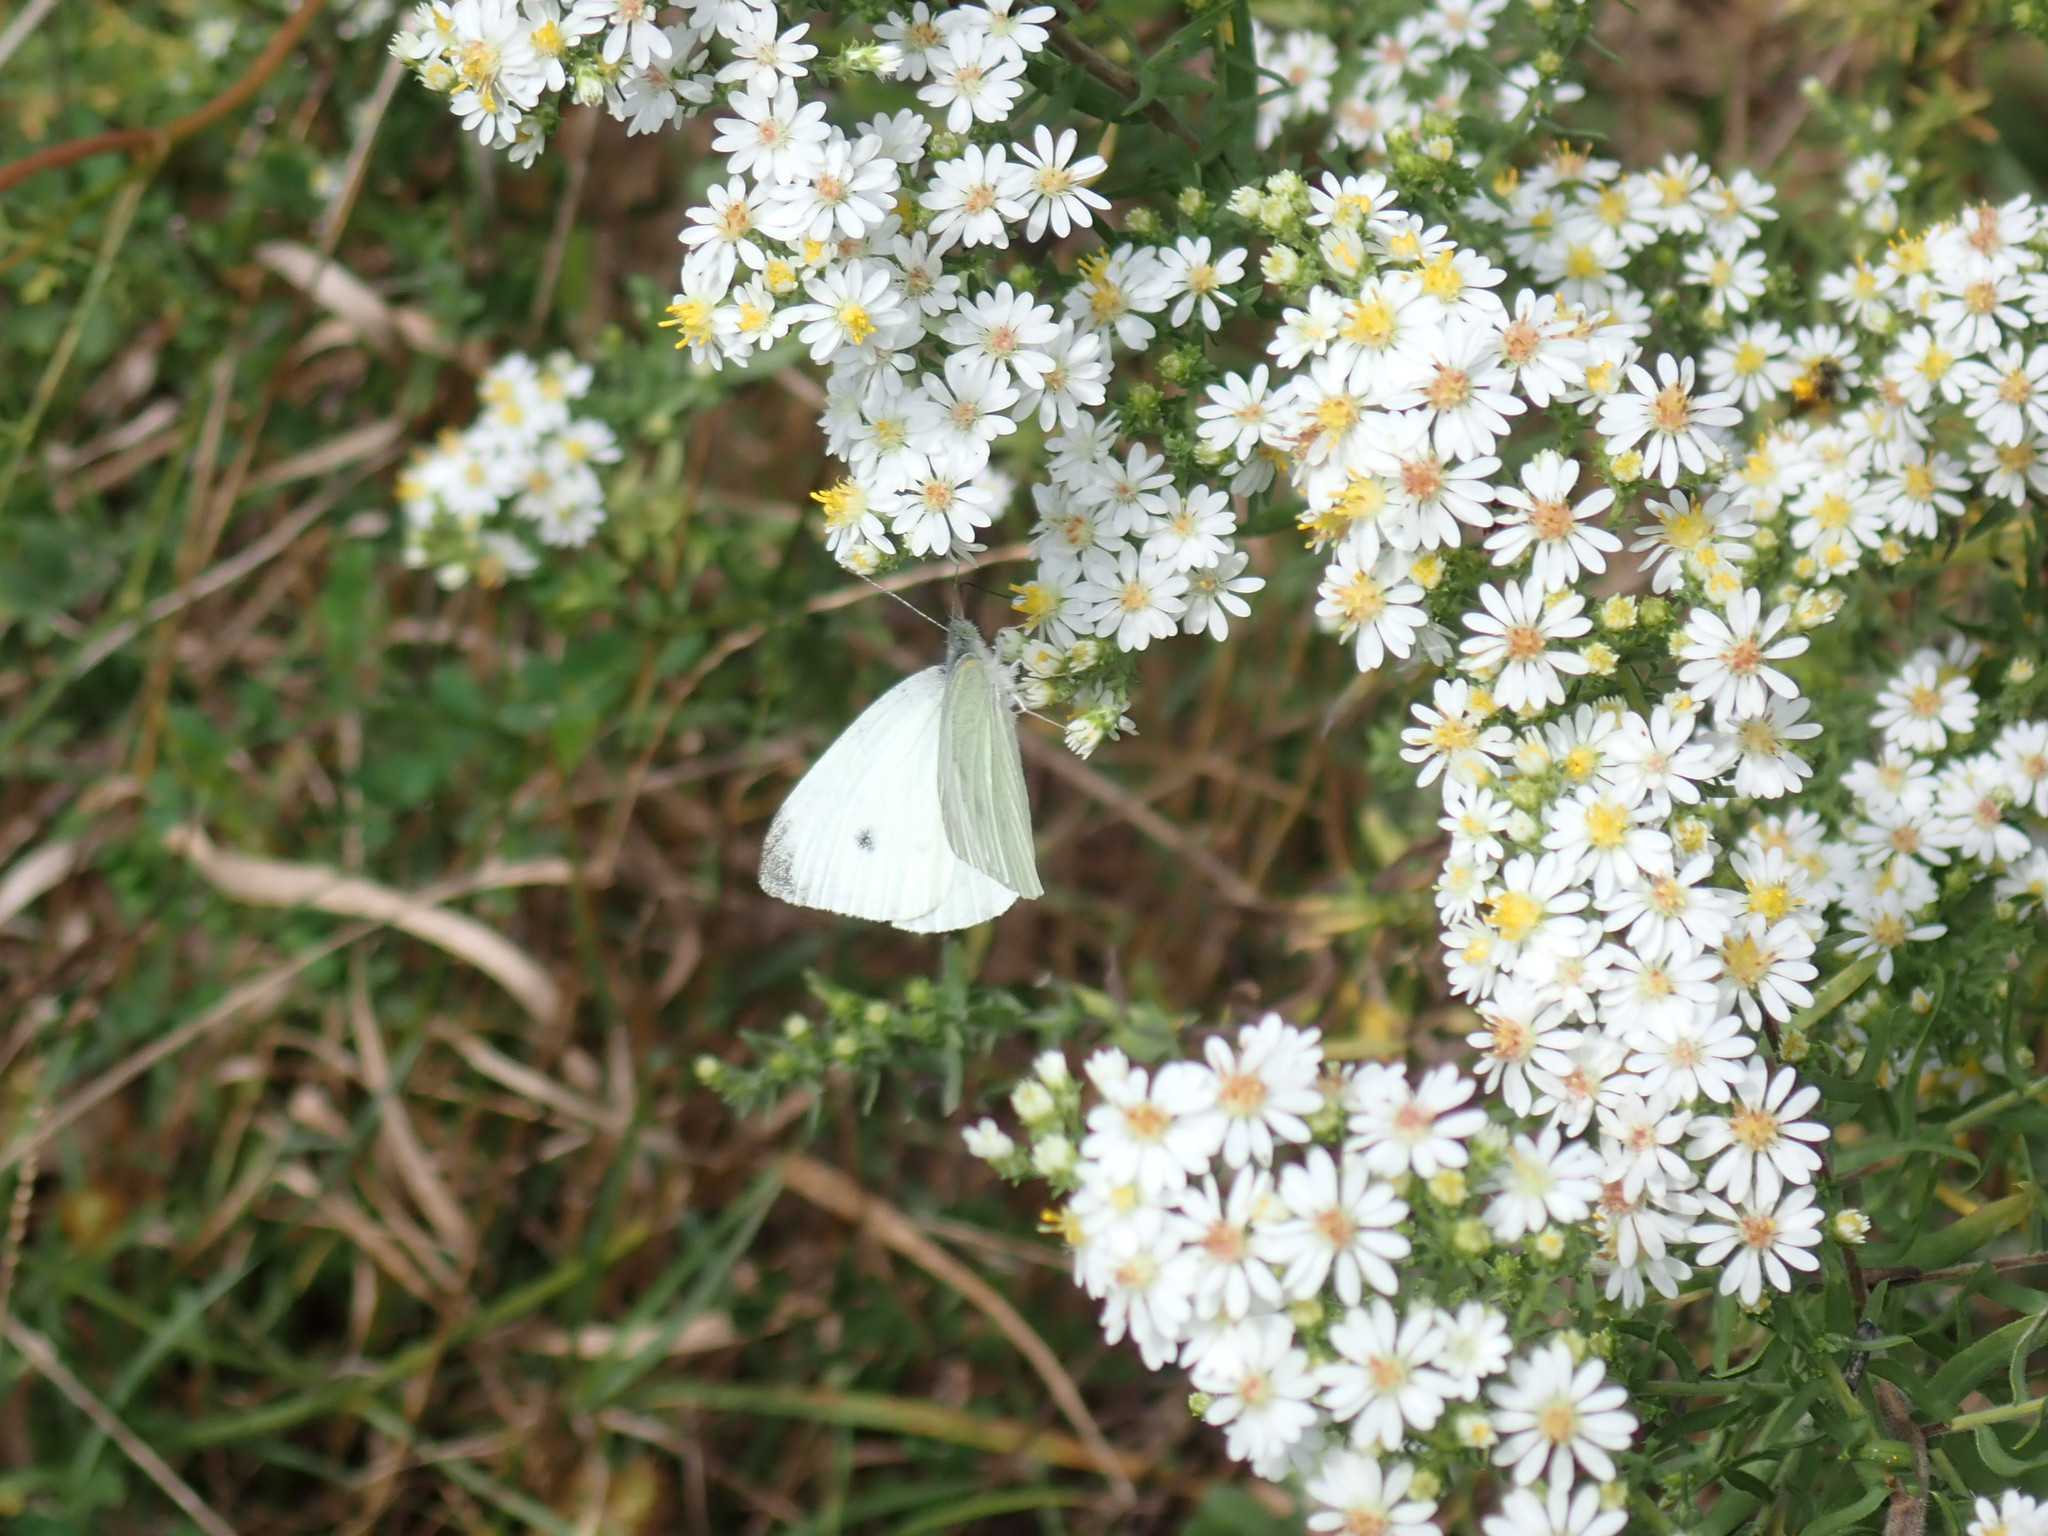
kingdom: Animalia
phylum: Arthropoda
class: Insecta
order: Lepidoptera
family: Pieridae
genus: Pieris
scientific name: Pieris rapae
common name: Small white
